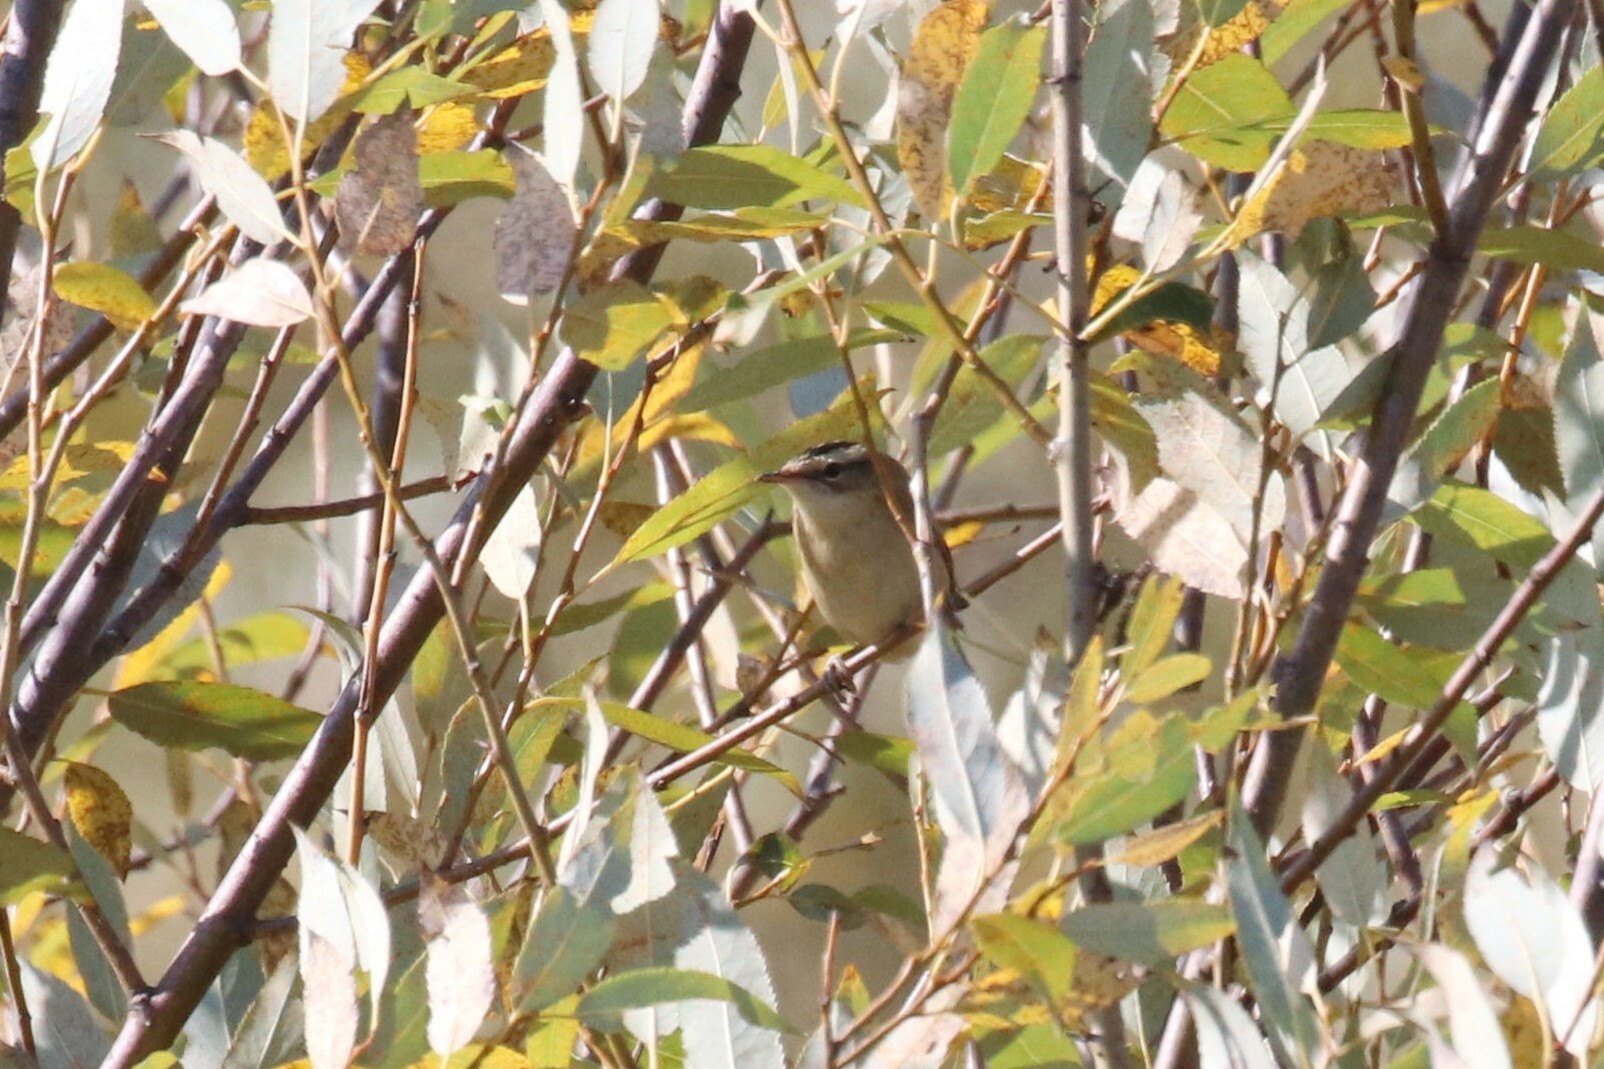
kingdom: Animalia
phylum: Chordata
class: Aves
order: Passeriformes
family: Acrocephalidae
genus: Acrocephalus
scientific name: Acrocephalus schoenobaenus
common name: Sedge warbler
